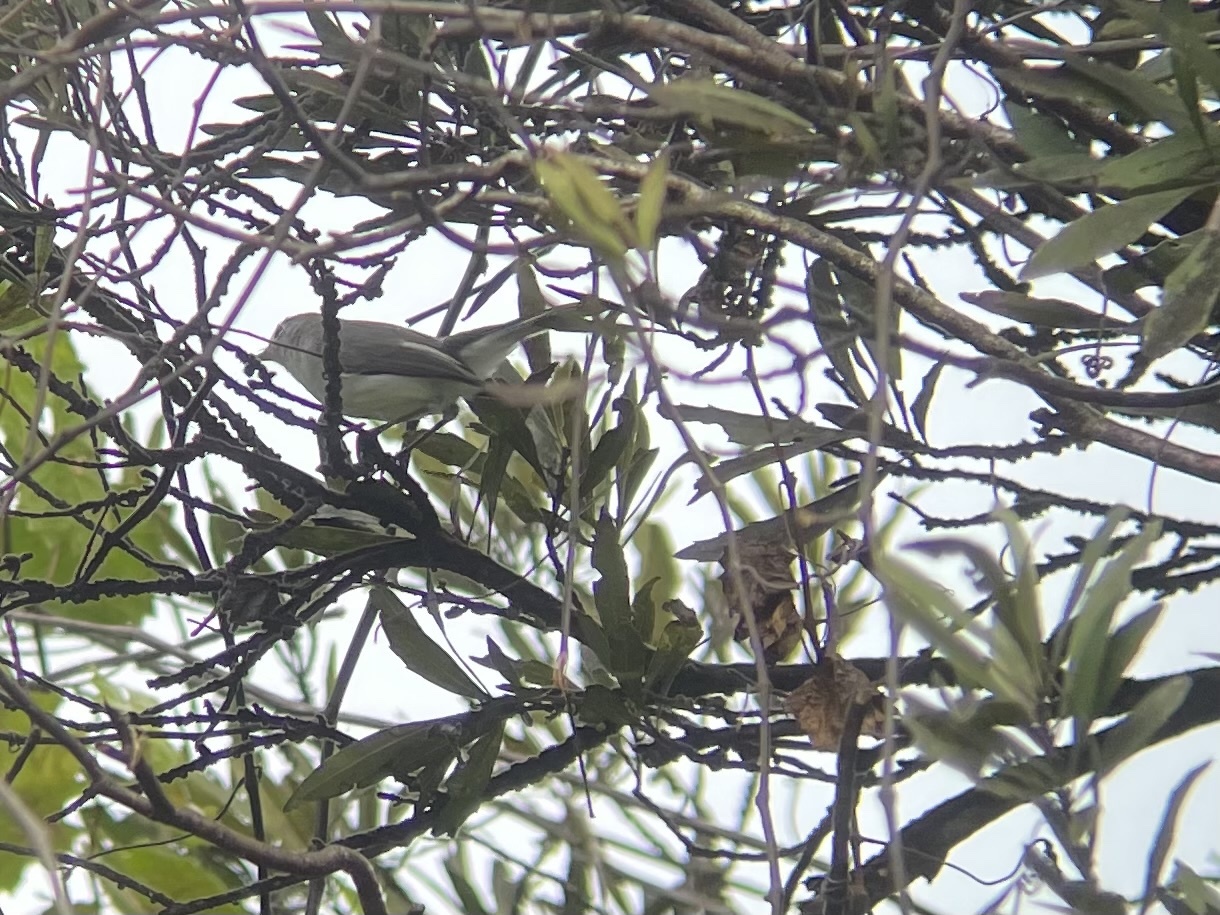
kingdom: Animalia
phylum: Chordata
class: Aves
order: Passeriformes
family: Polioptilidae
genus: Polioptila
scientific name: Polioptila caerulea
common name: Blue-gray gnatcatcher
